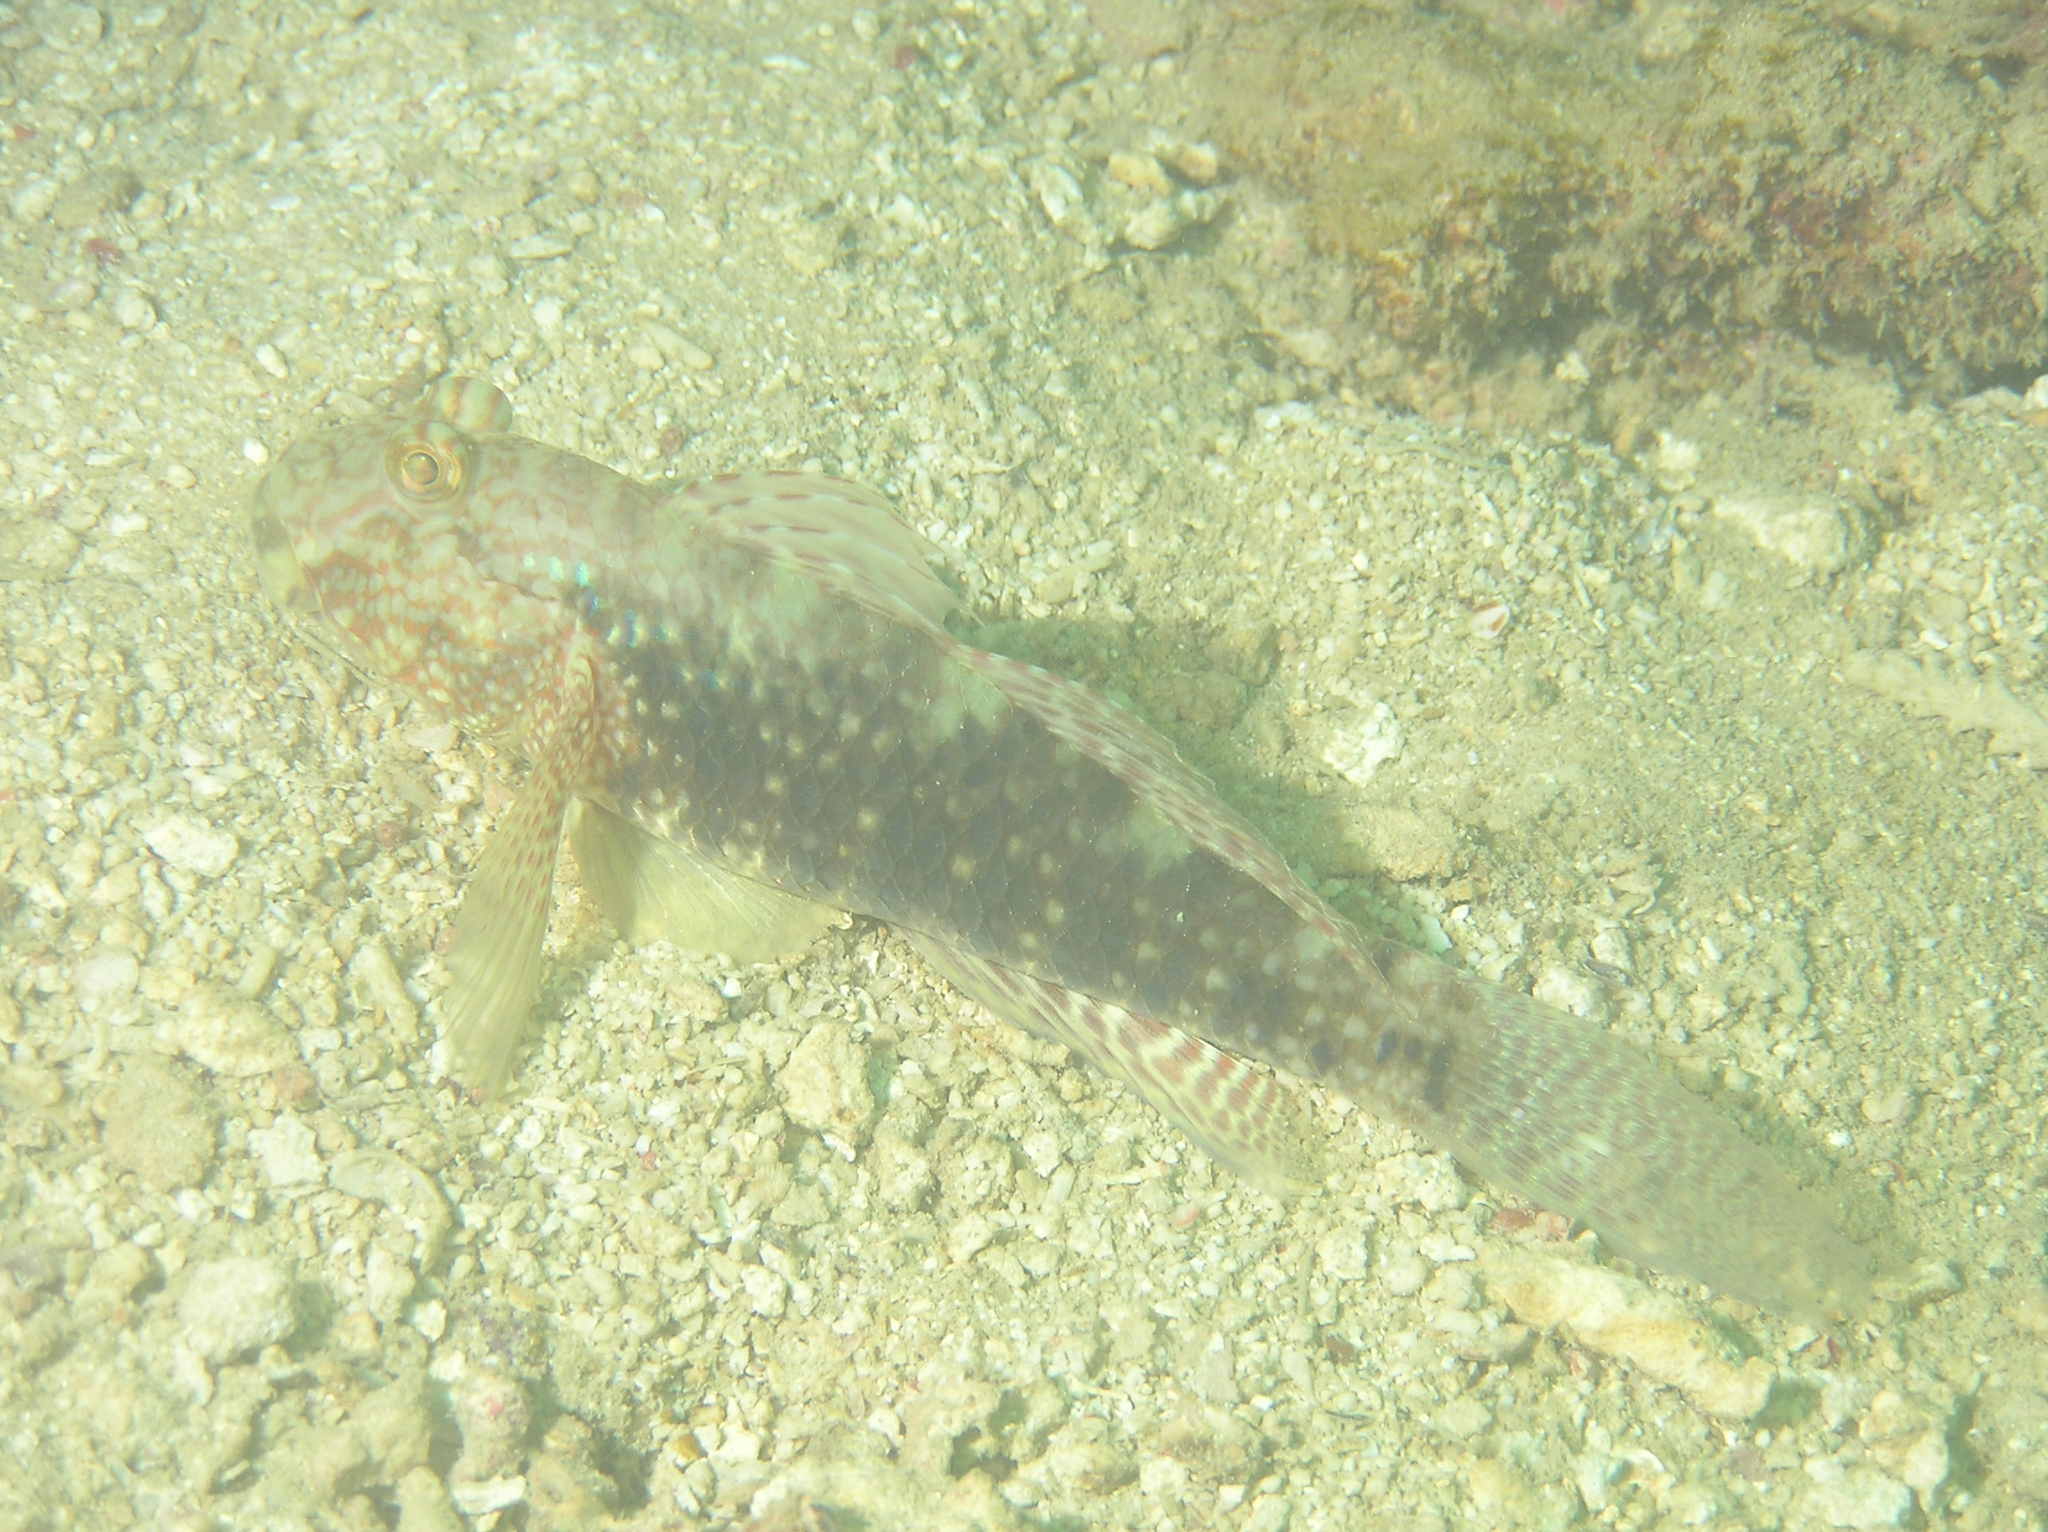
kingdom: Animalia
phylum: Chordata
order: Perciformes
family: Gobiidae
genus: Exyrias
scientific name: Exyrias belissimus
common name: Mud reef-goby
